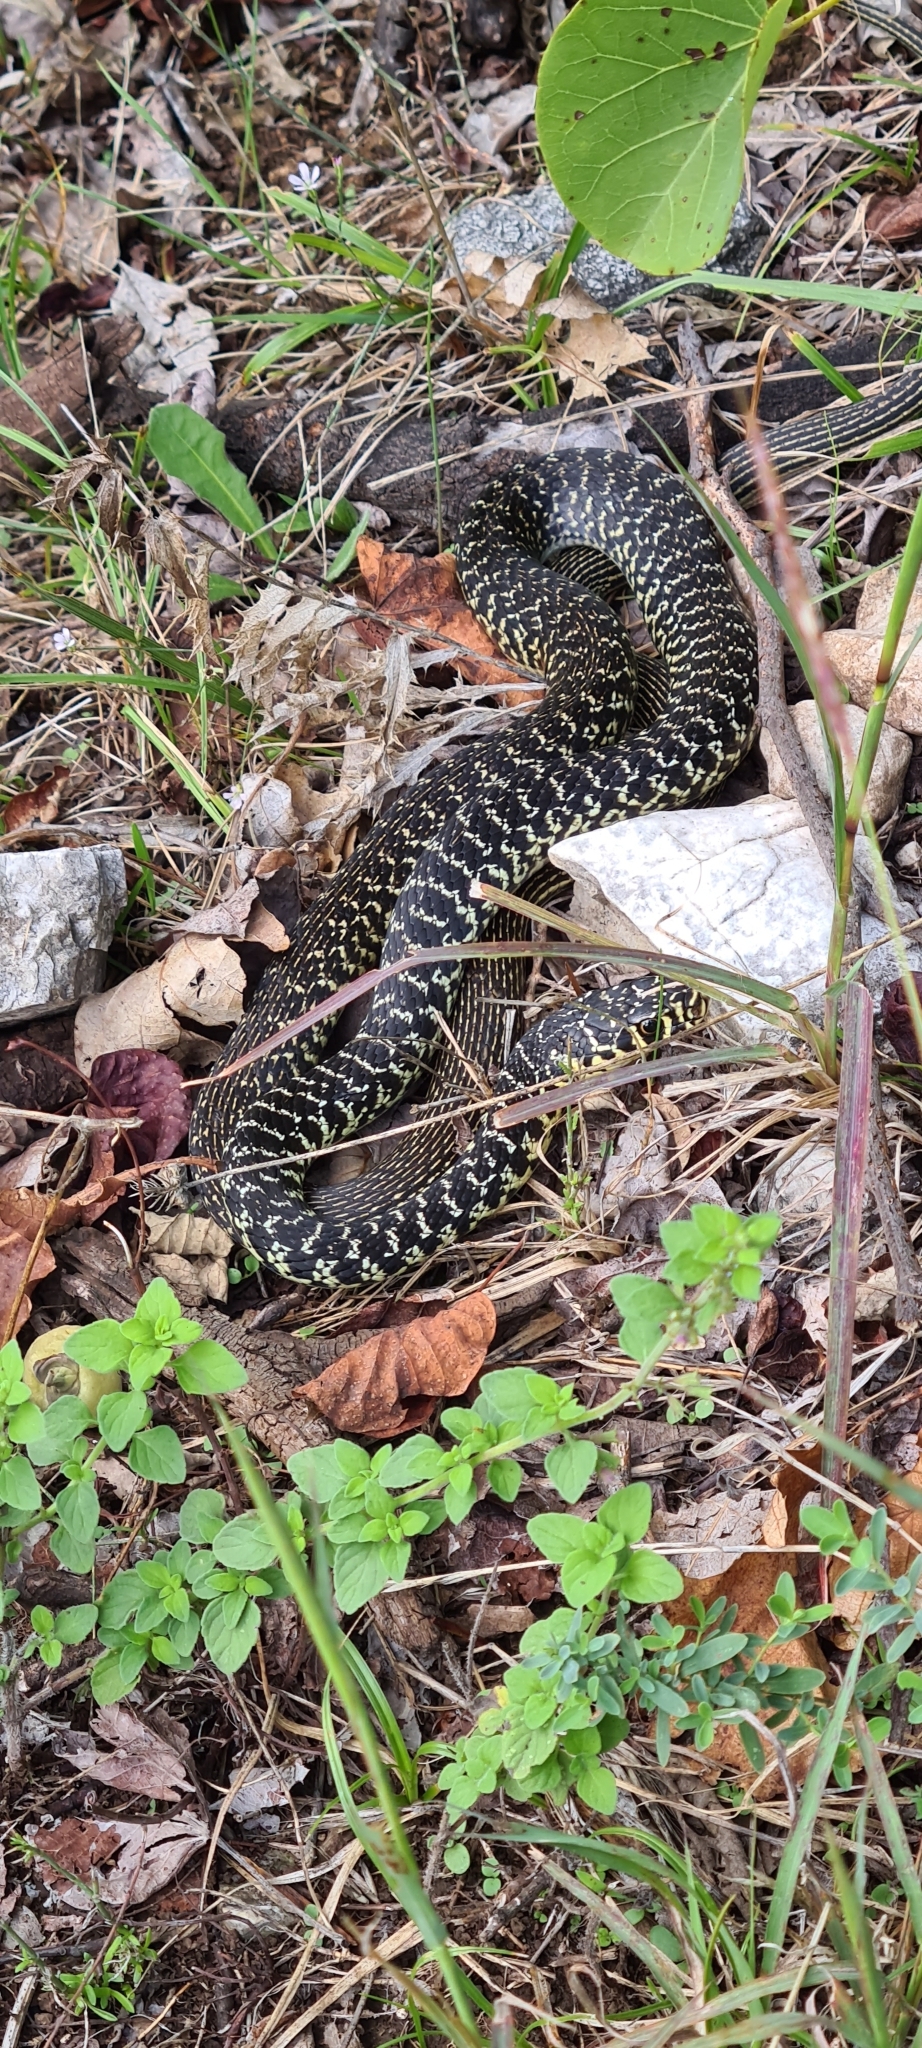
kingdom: Animalia
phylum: Chordata
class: Squamata
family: Colubridae
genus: Hierophis
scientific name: Hierophis viridiflavus
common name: Green whip snake
